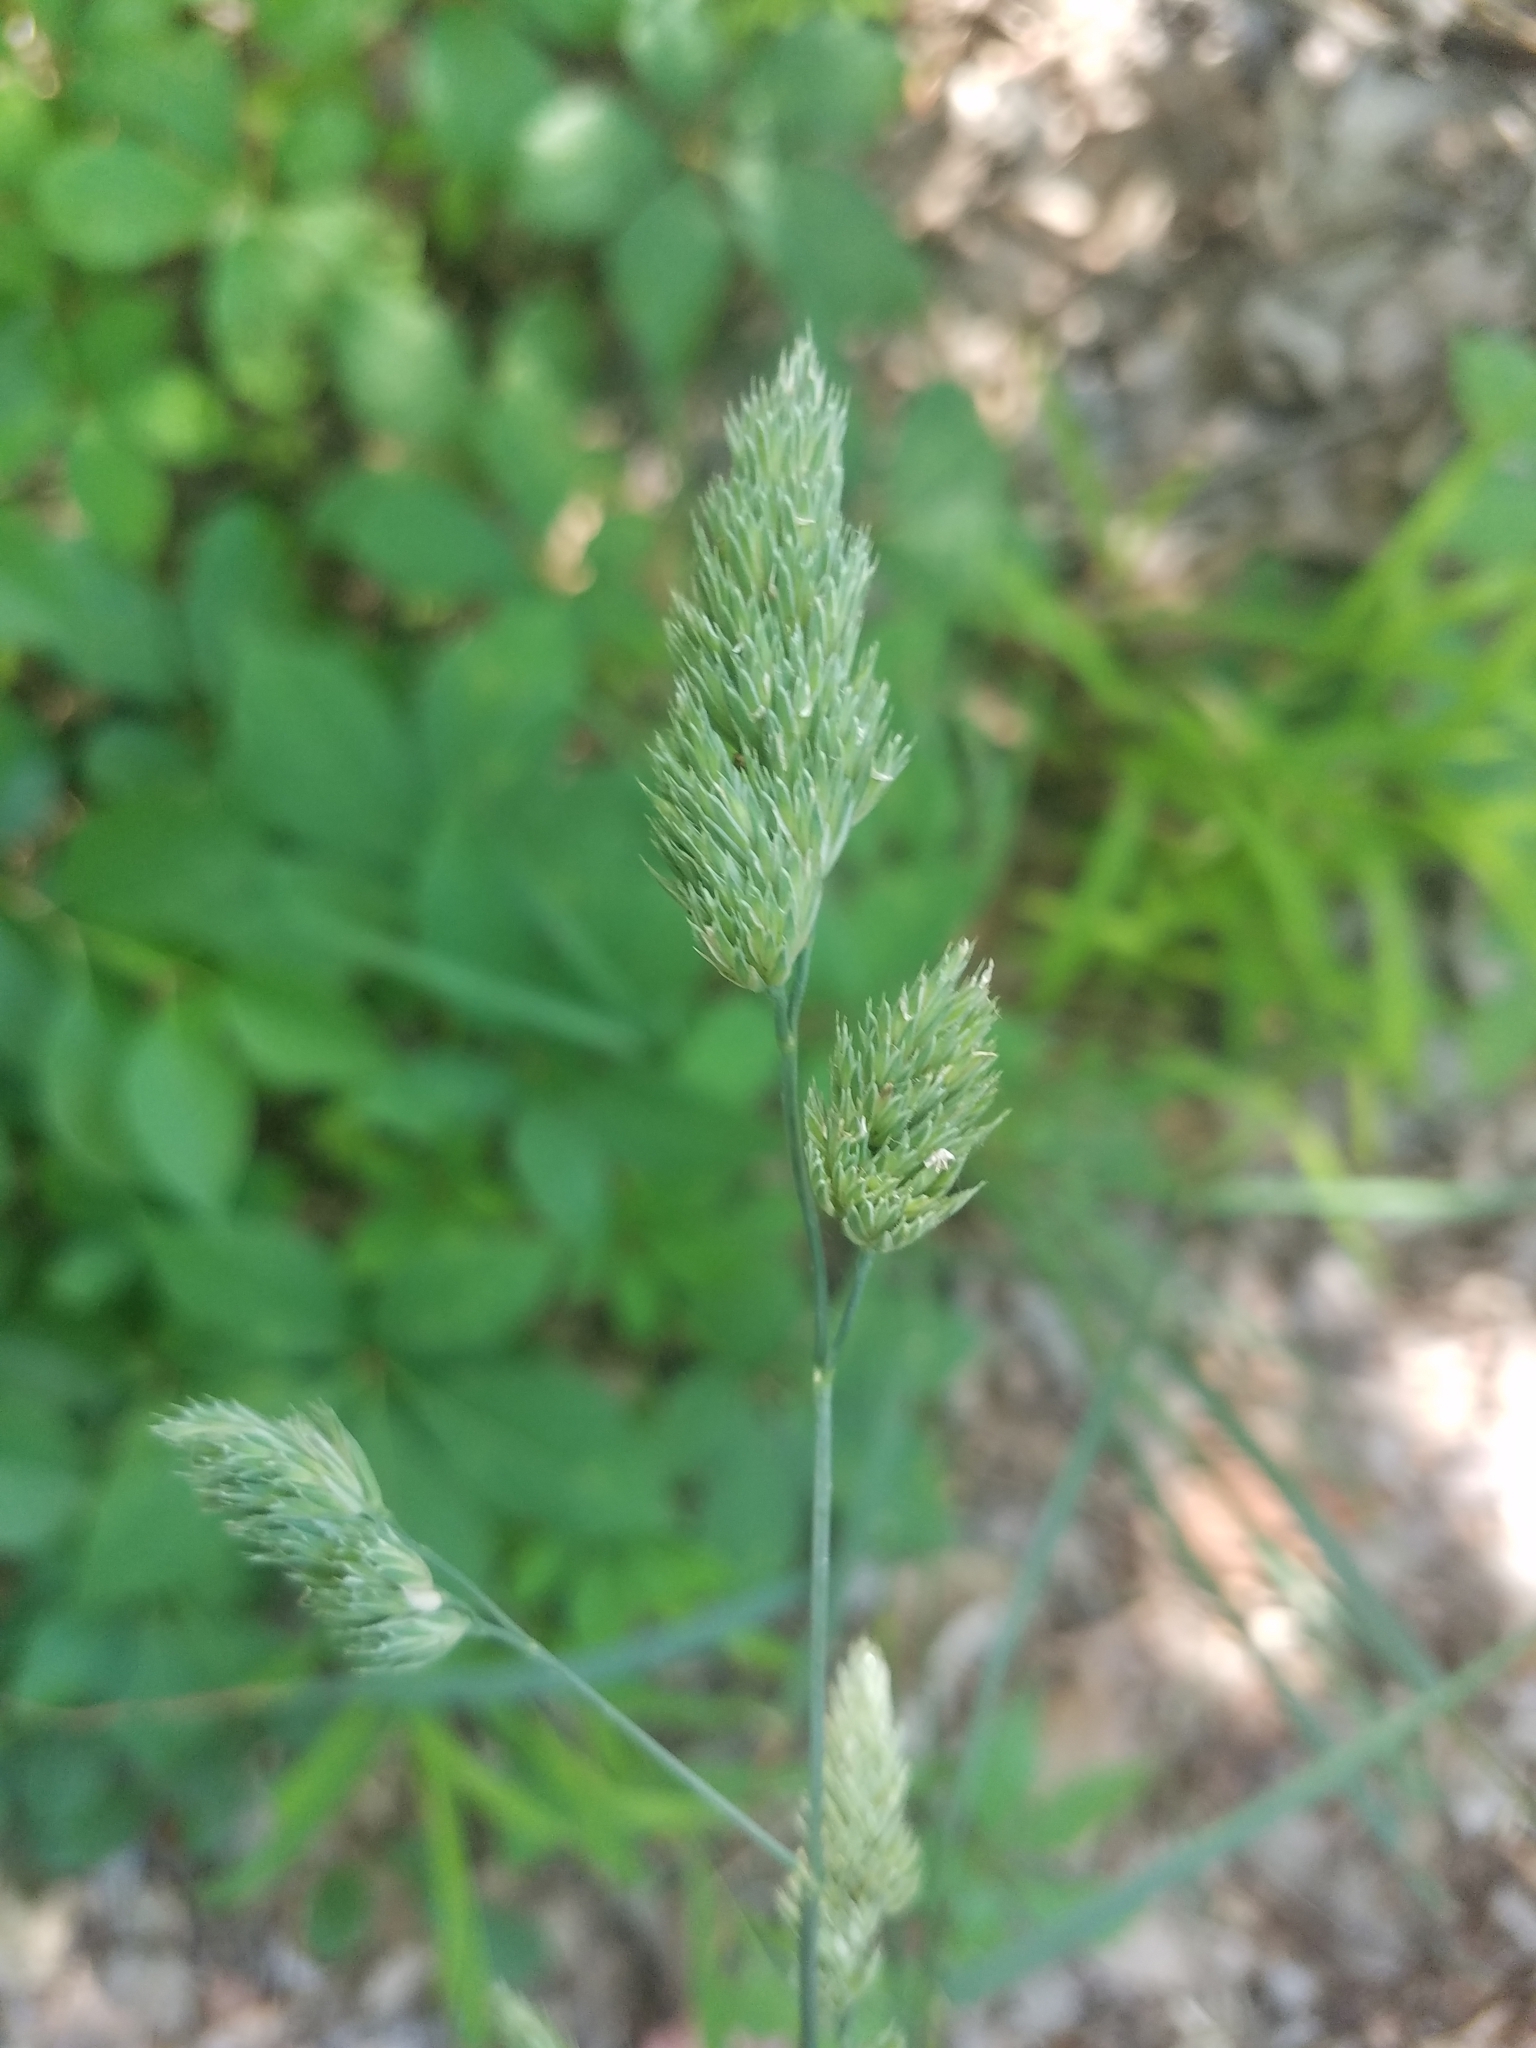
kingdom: Plantae
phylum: Tracheophyta
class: Liliopsida
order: Poales
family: Poaceae
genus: Dactylis
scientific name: Dactylis glomerata
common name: Orchardgrass
